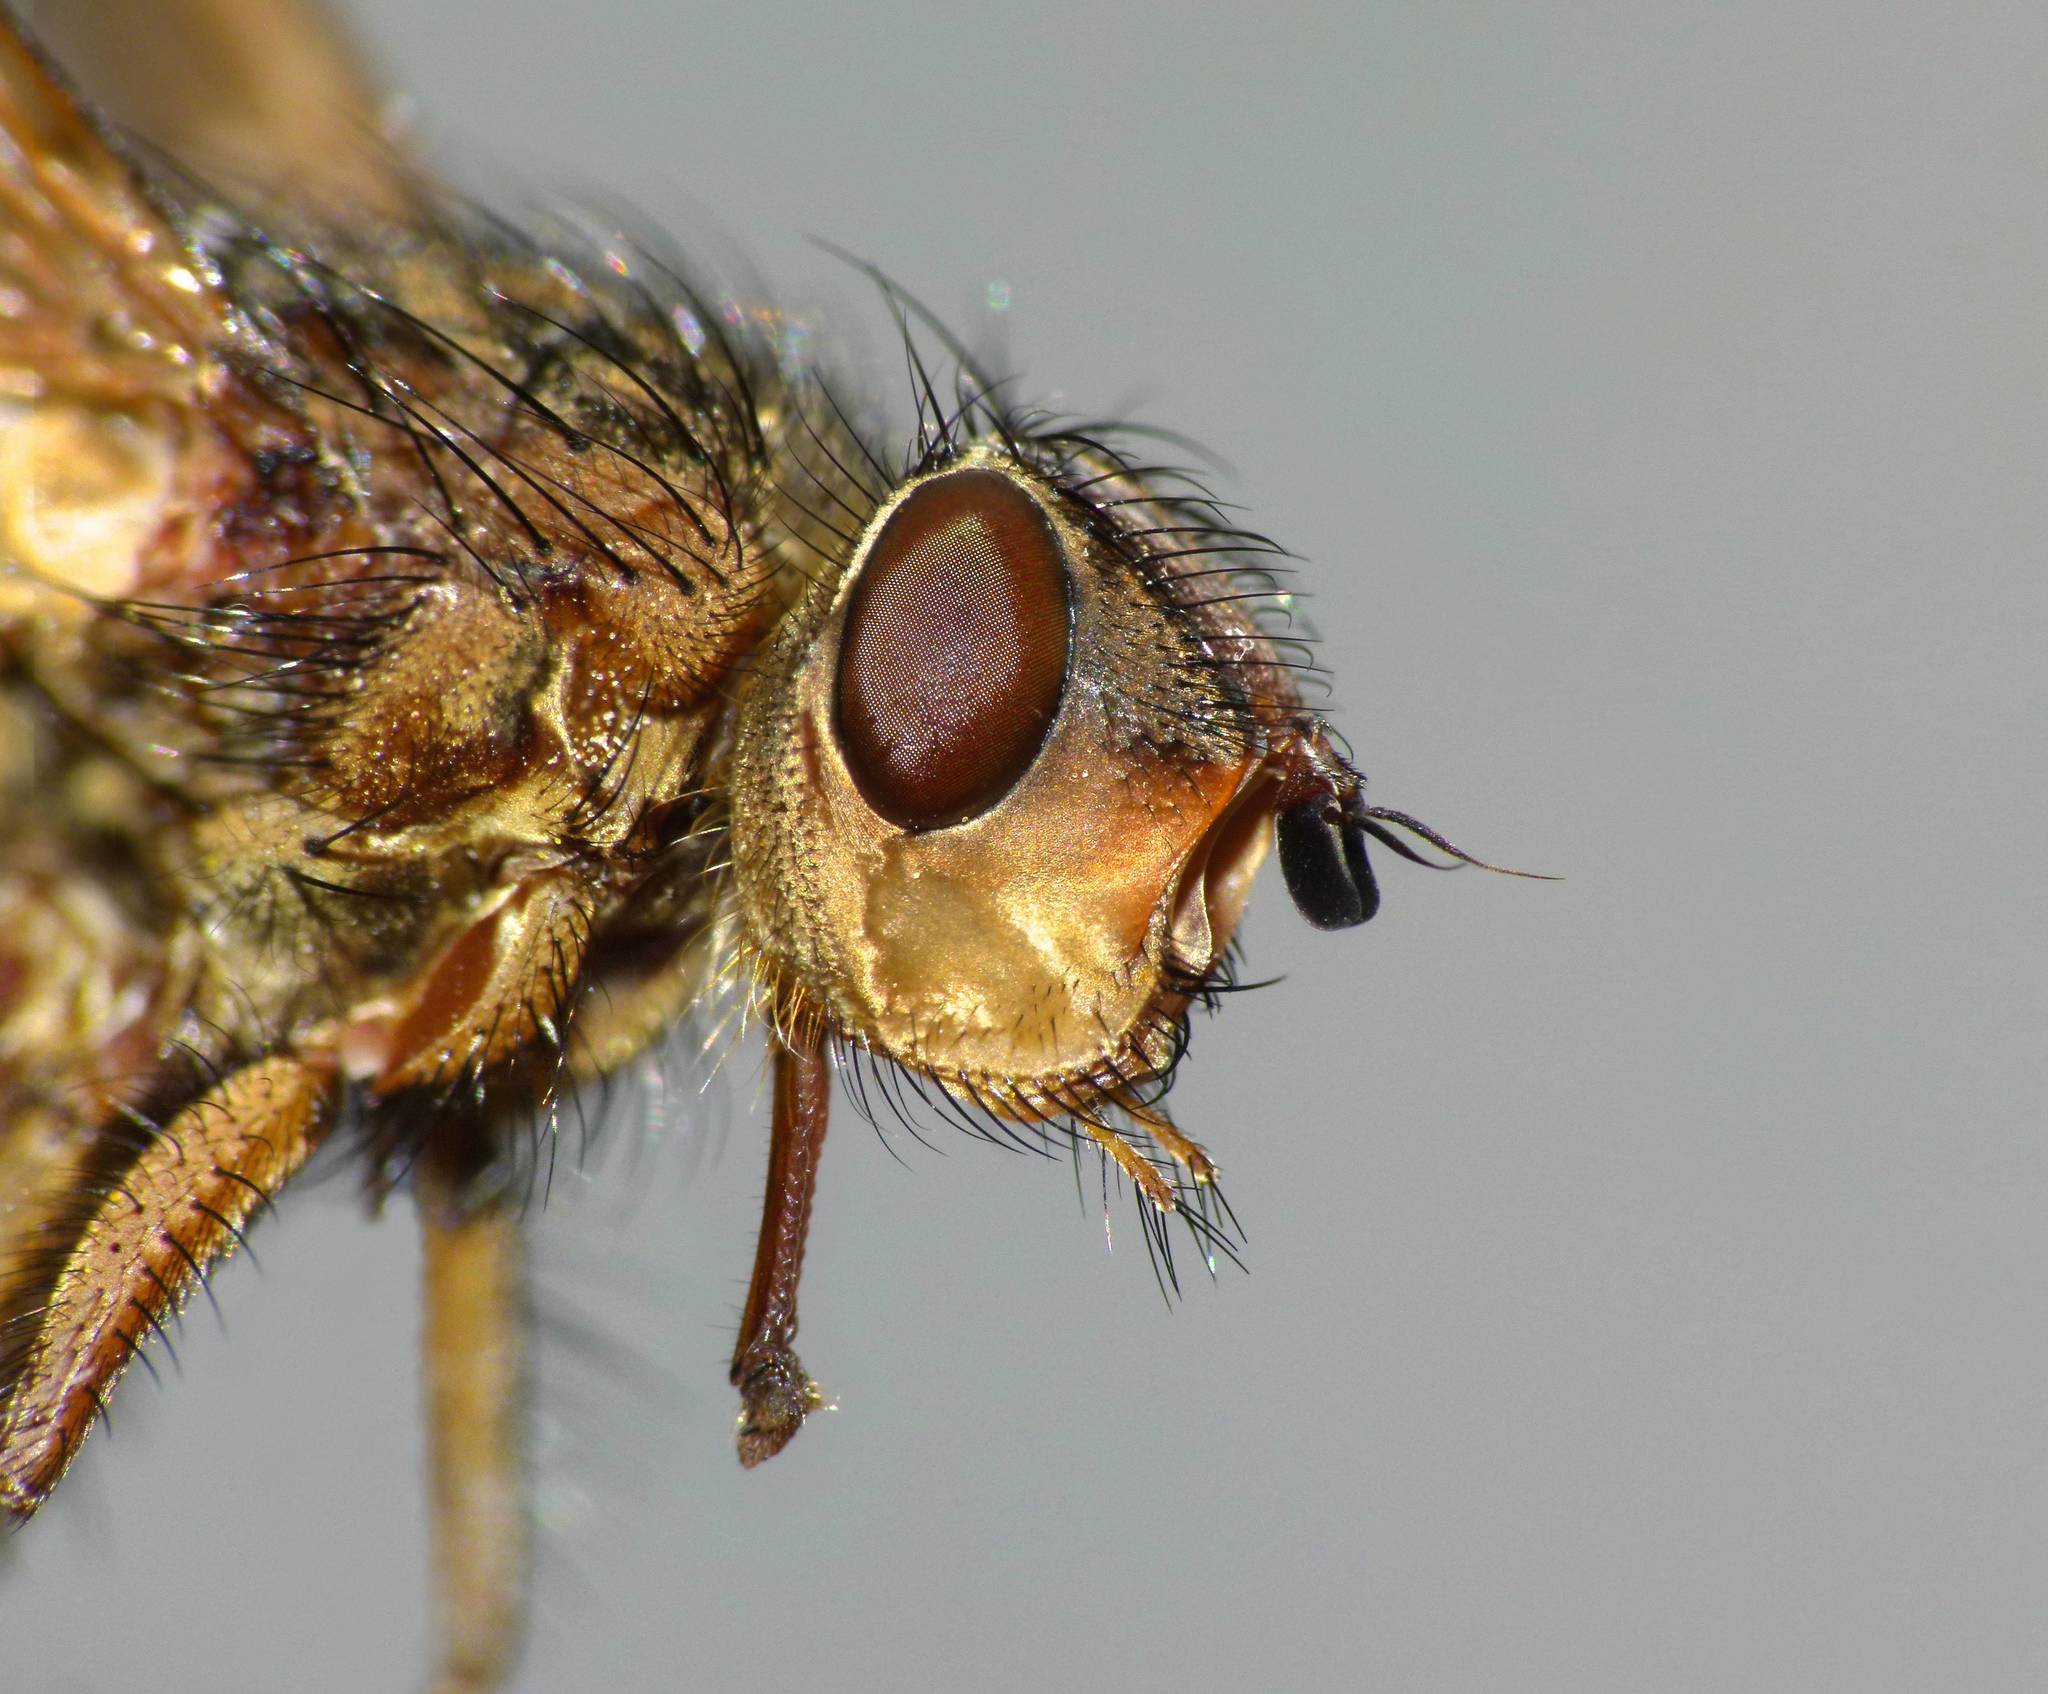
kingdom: Animalia
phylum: Arthropoda
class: Insecta
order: Diptera
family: Tachinidae
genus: Peremptor
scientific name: Peremptor kumaraensis
